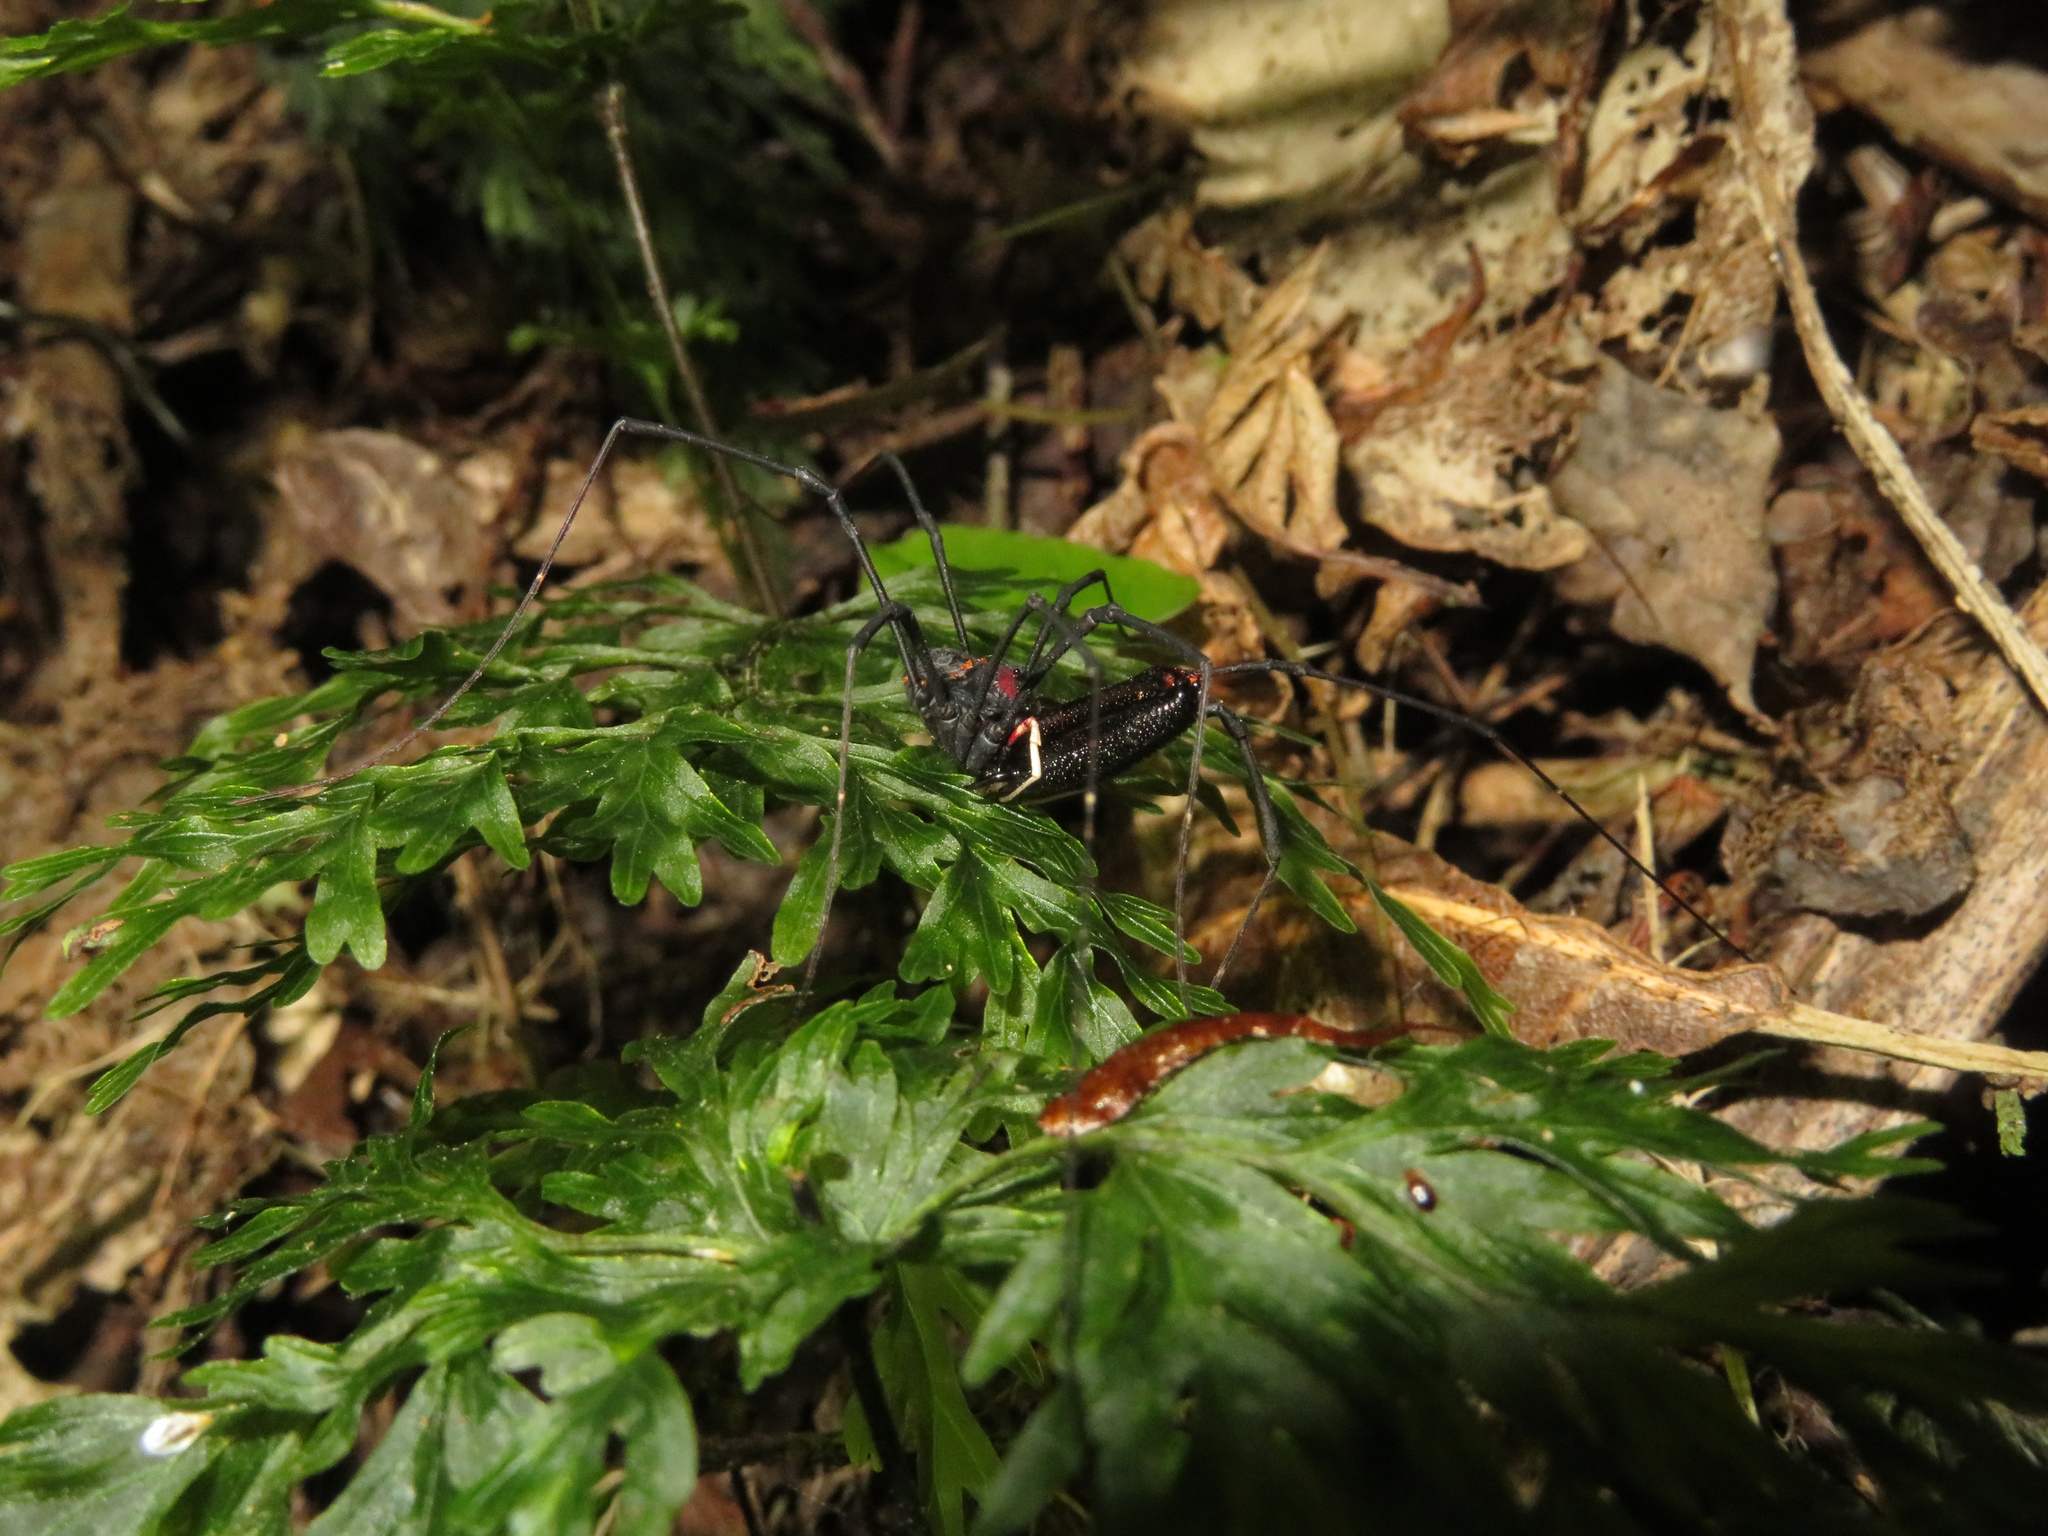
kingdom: Animalia
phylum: Arthropoda
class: Arachnida
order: Opiliones
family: Neopilionidae
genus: Forsteropsalis
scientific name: Forsteropsalis inconstans
